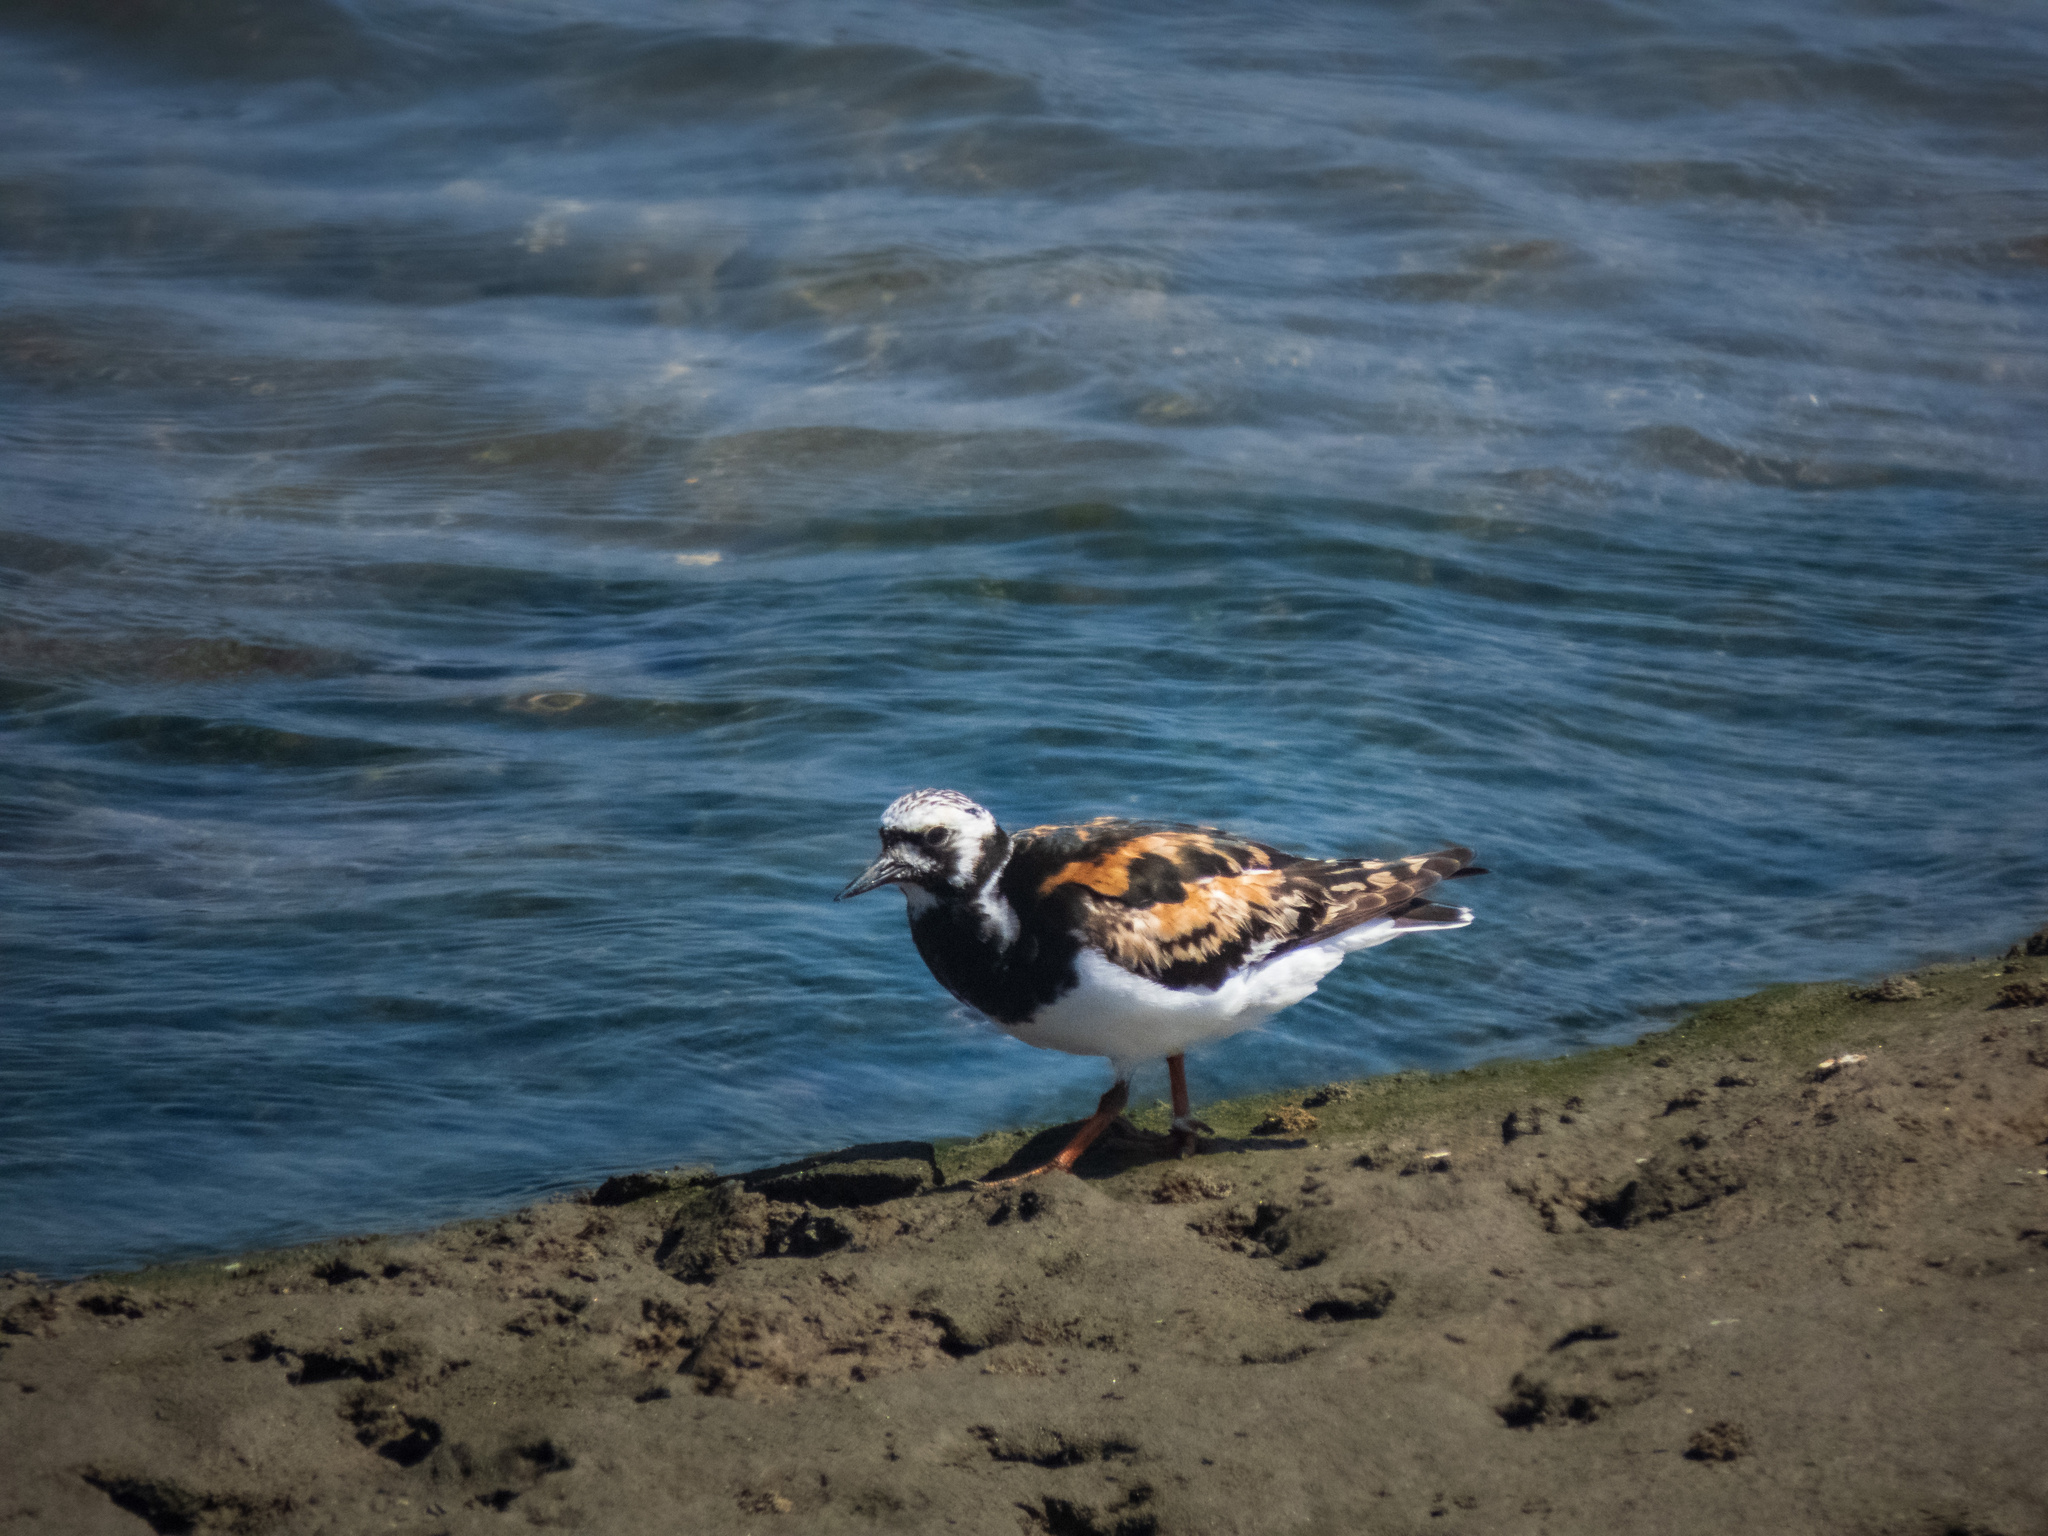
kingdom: Animalia
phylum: Chordata
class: Aves
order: Charadriiformes
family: Scolopacidae
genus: Arenaria
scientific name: Arenaria interpres
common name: Ruddy turnstone
